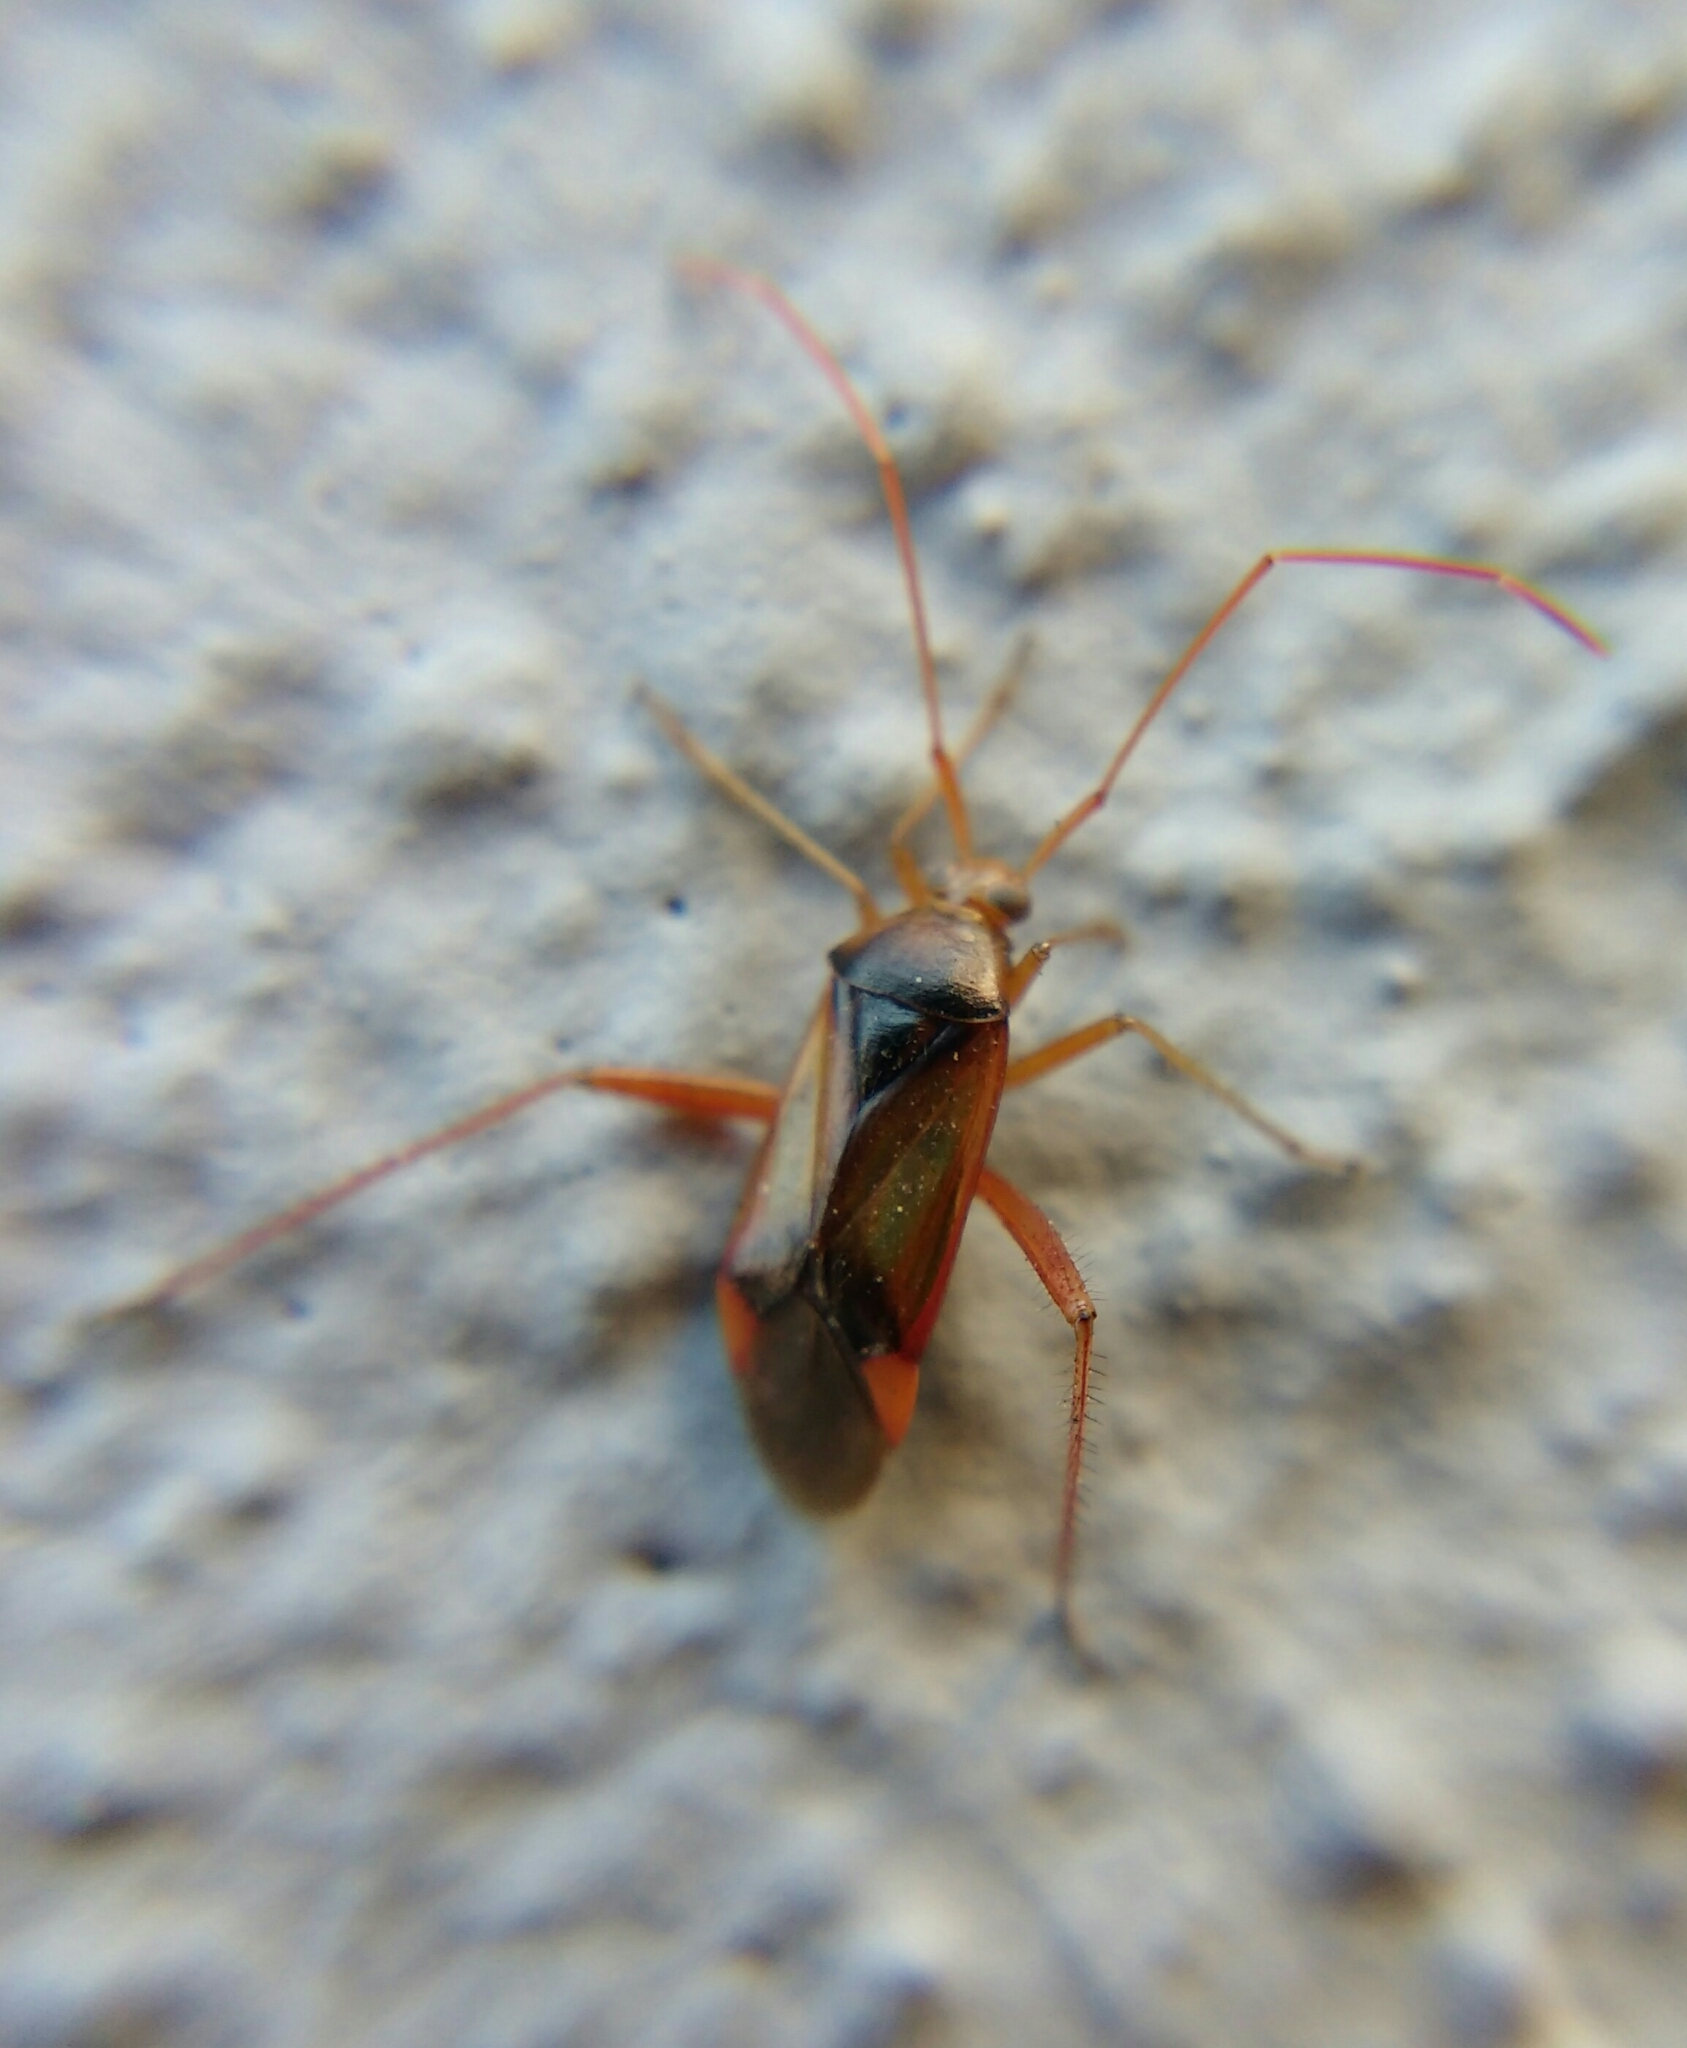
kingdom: Animalia
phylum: Arthropoda
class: Insecta
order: Hemiptera
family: Miridae
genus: Megacoelum
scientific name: Megacoelum beckeri
